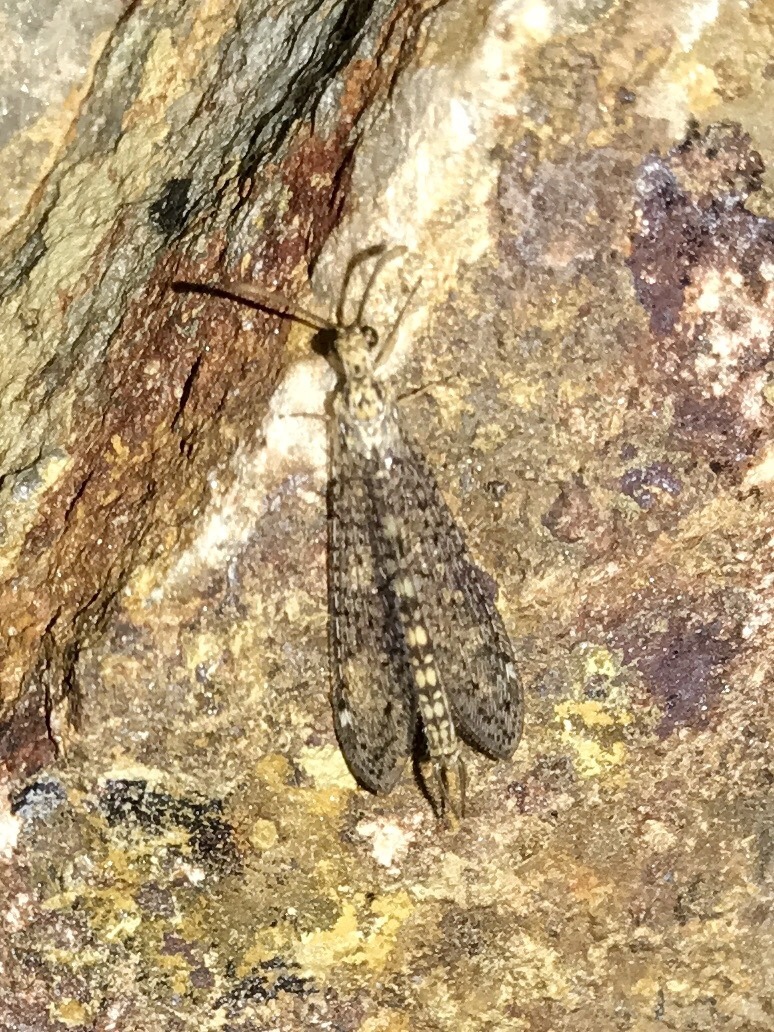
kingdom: Animalia
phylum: Arthropoda
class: Insecta
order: Neuroptera
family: Myrmeleontidae
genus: Scotoleon
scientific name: Scotoleon expansus
